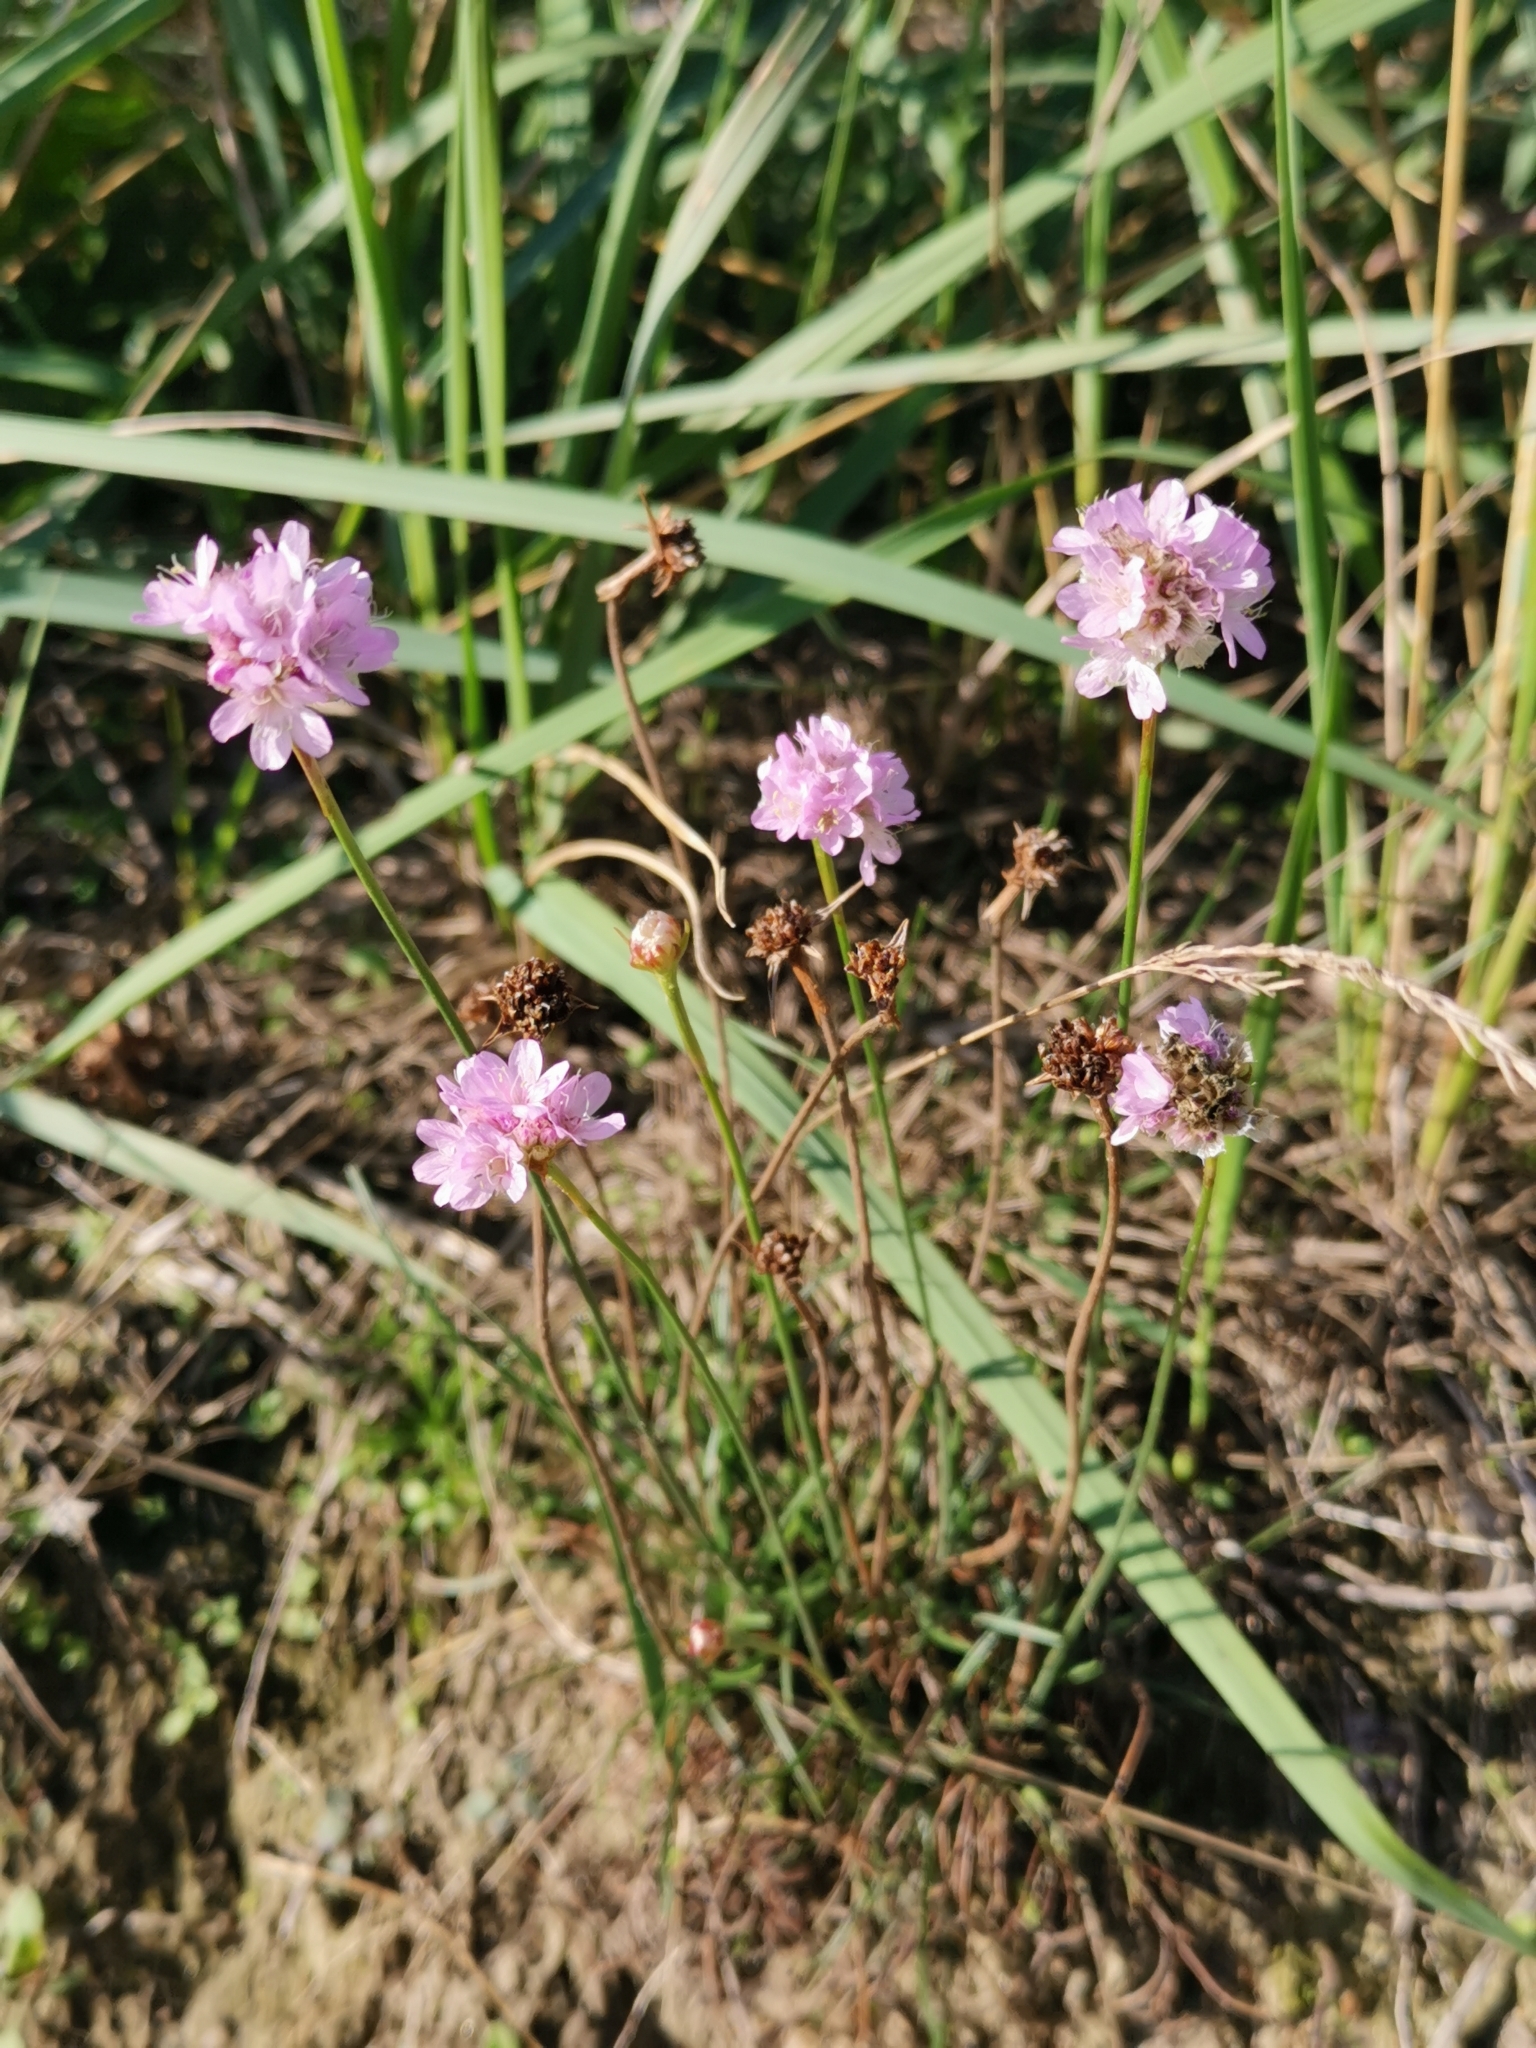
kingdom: Plantae
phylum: Tracheophyta
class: Magnoliopsida
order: Caryophyllales
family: Plumbaginaceae
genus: Armeria
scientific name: Armeria maritima
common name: Thrift
